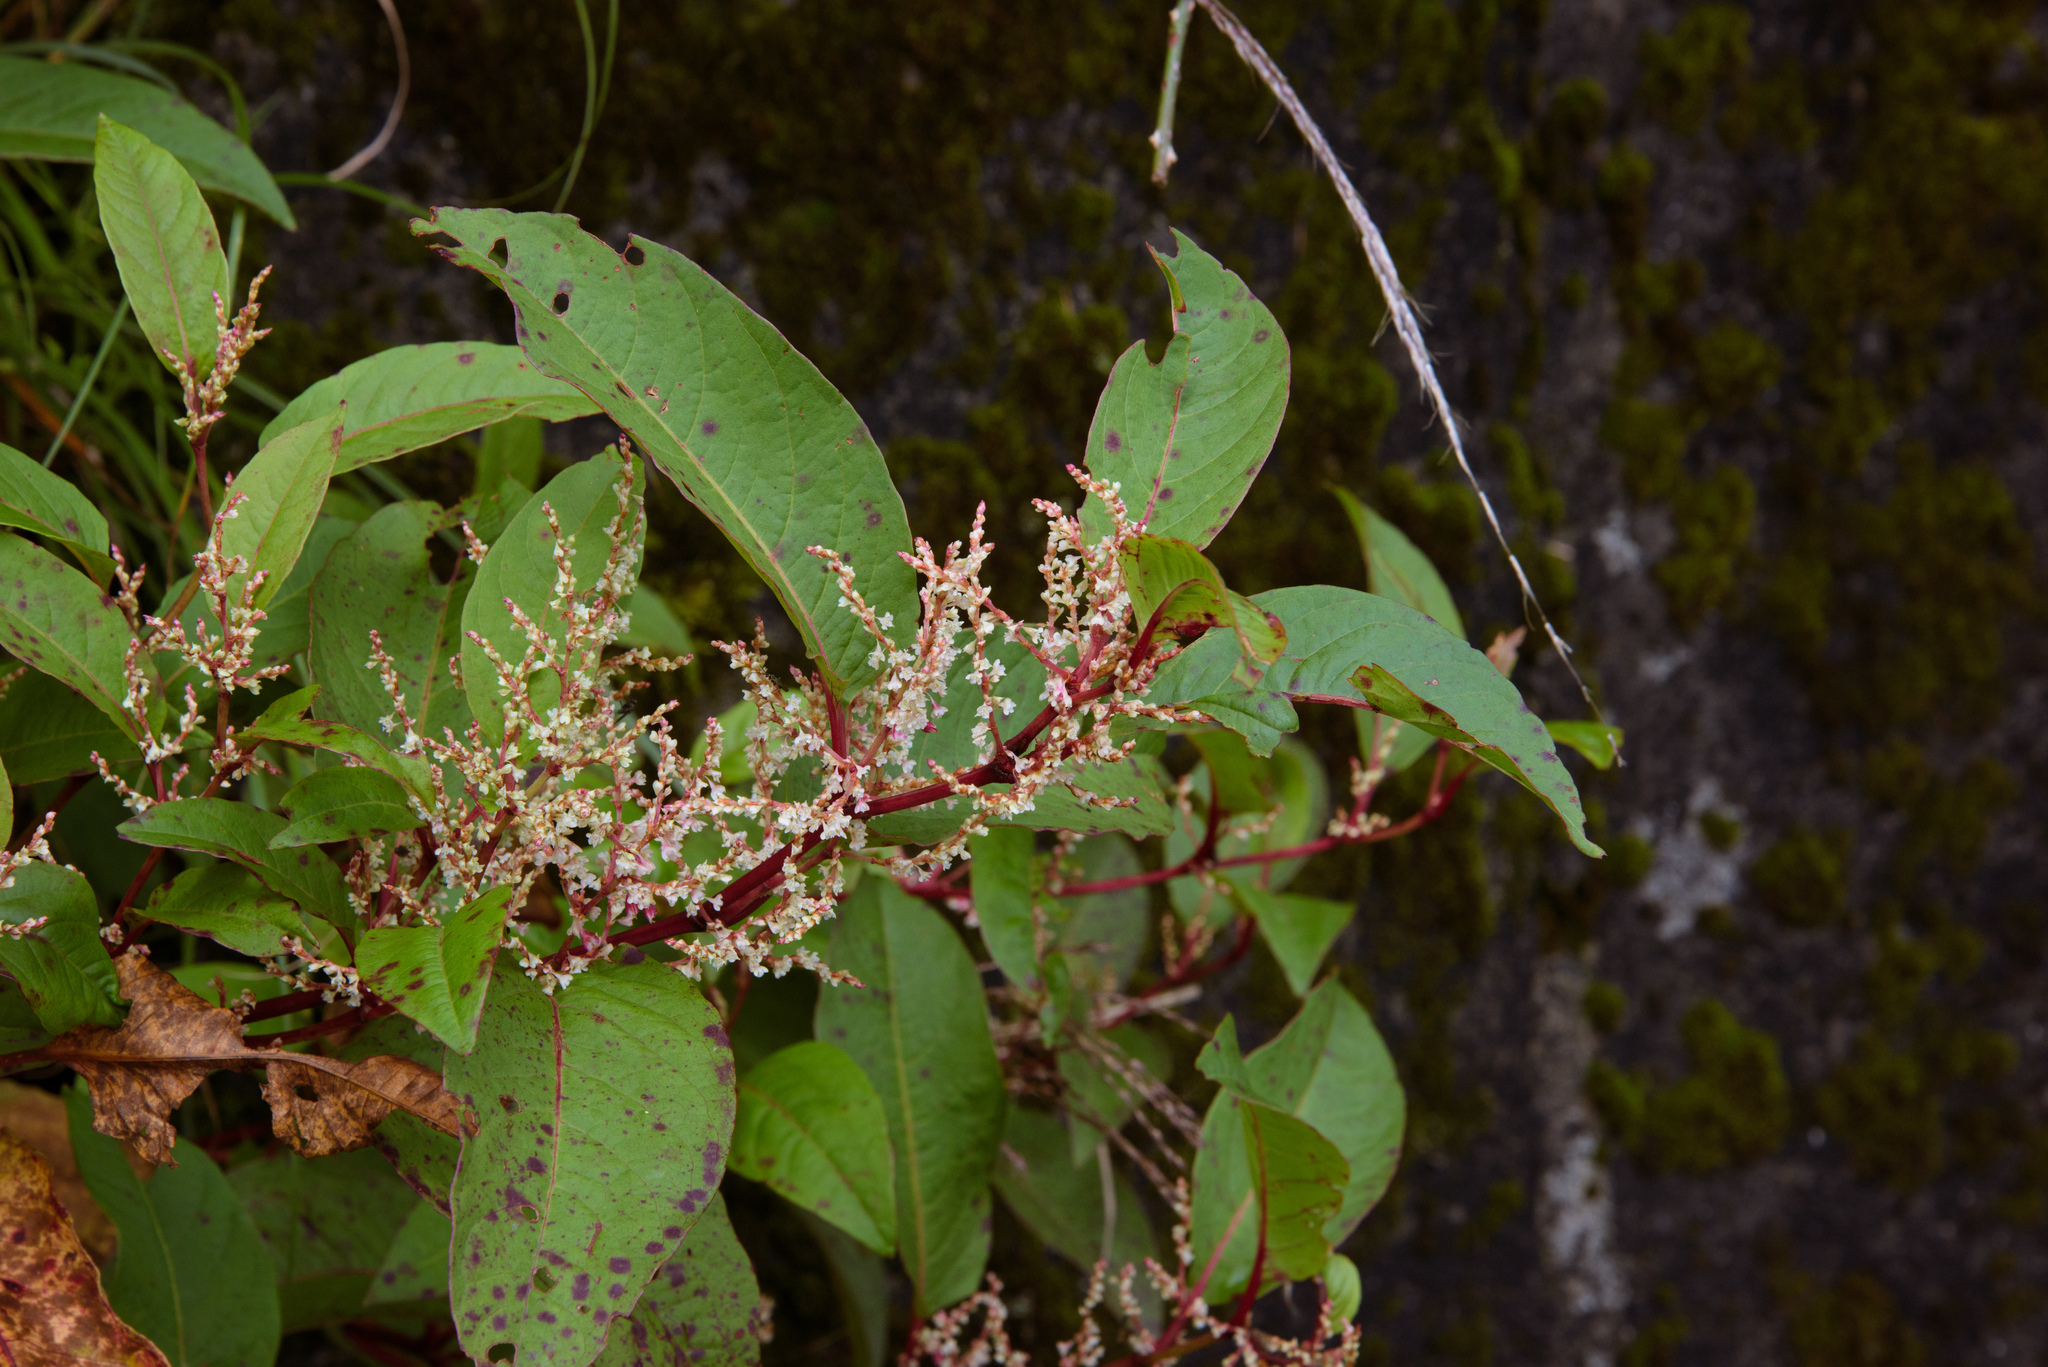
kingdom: Plantae
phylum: Tracheophyta
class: Magnoliopsida
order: Caryophyllales
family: Polygonaceae
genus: Reynoutria
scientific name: Reynoutria japonica
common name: Japanese knotweed
